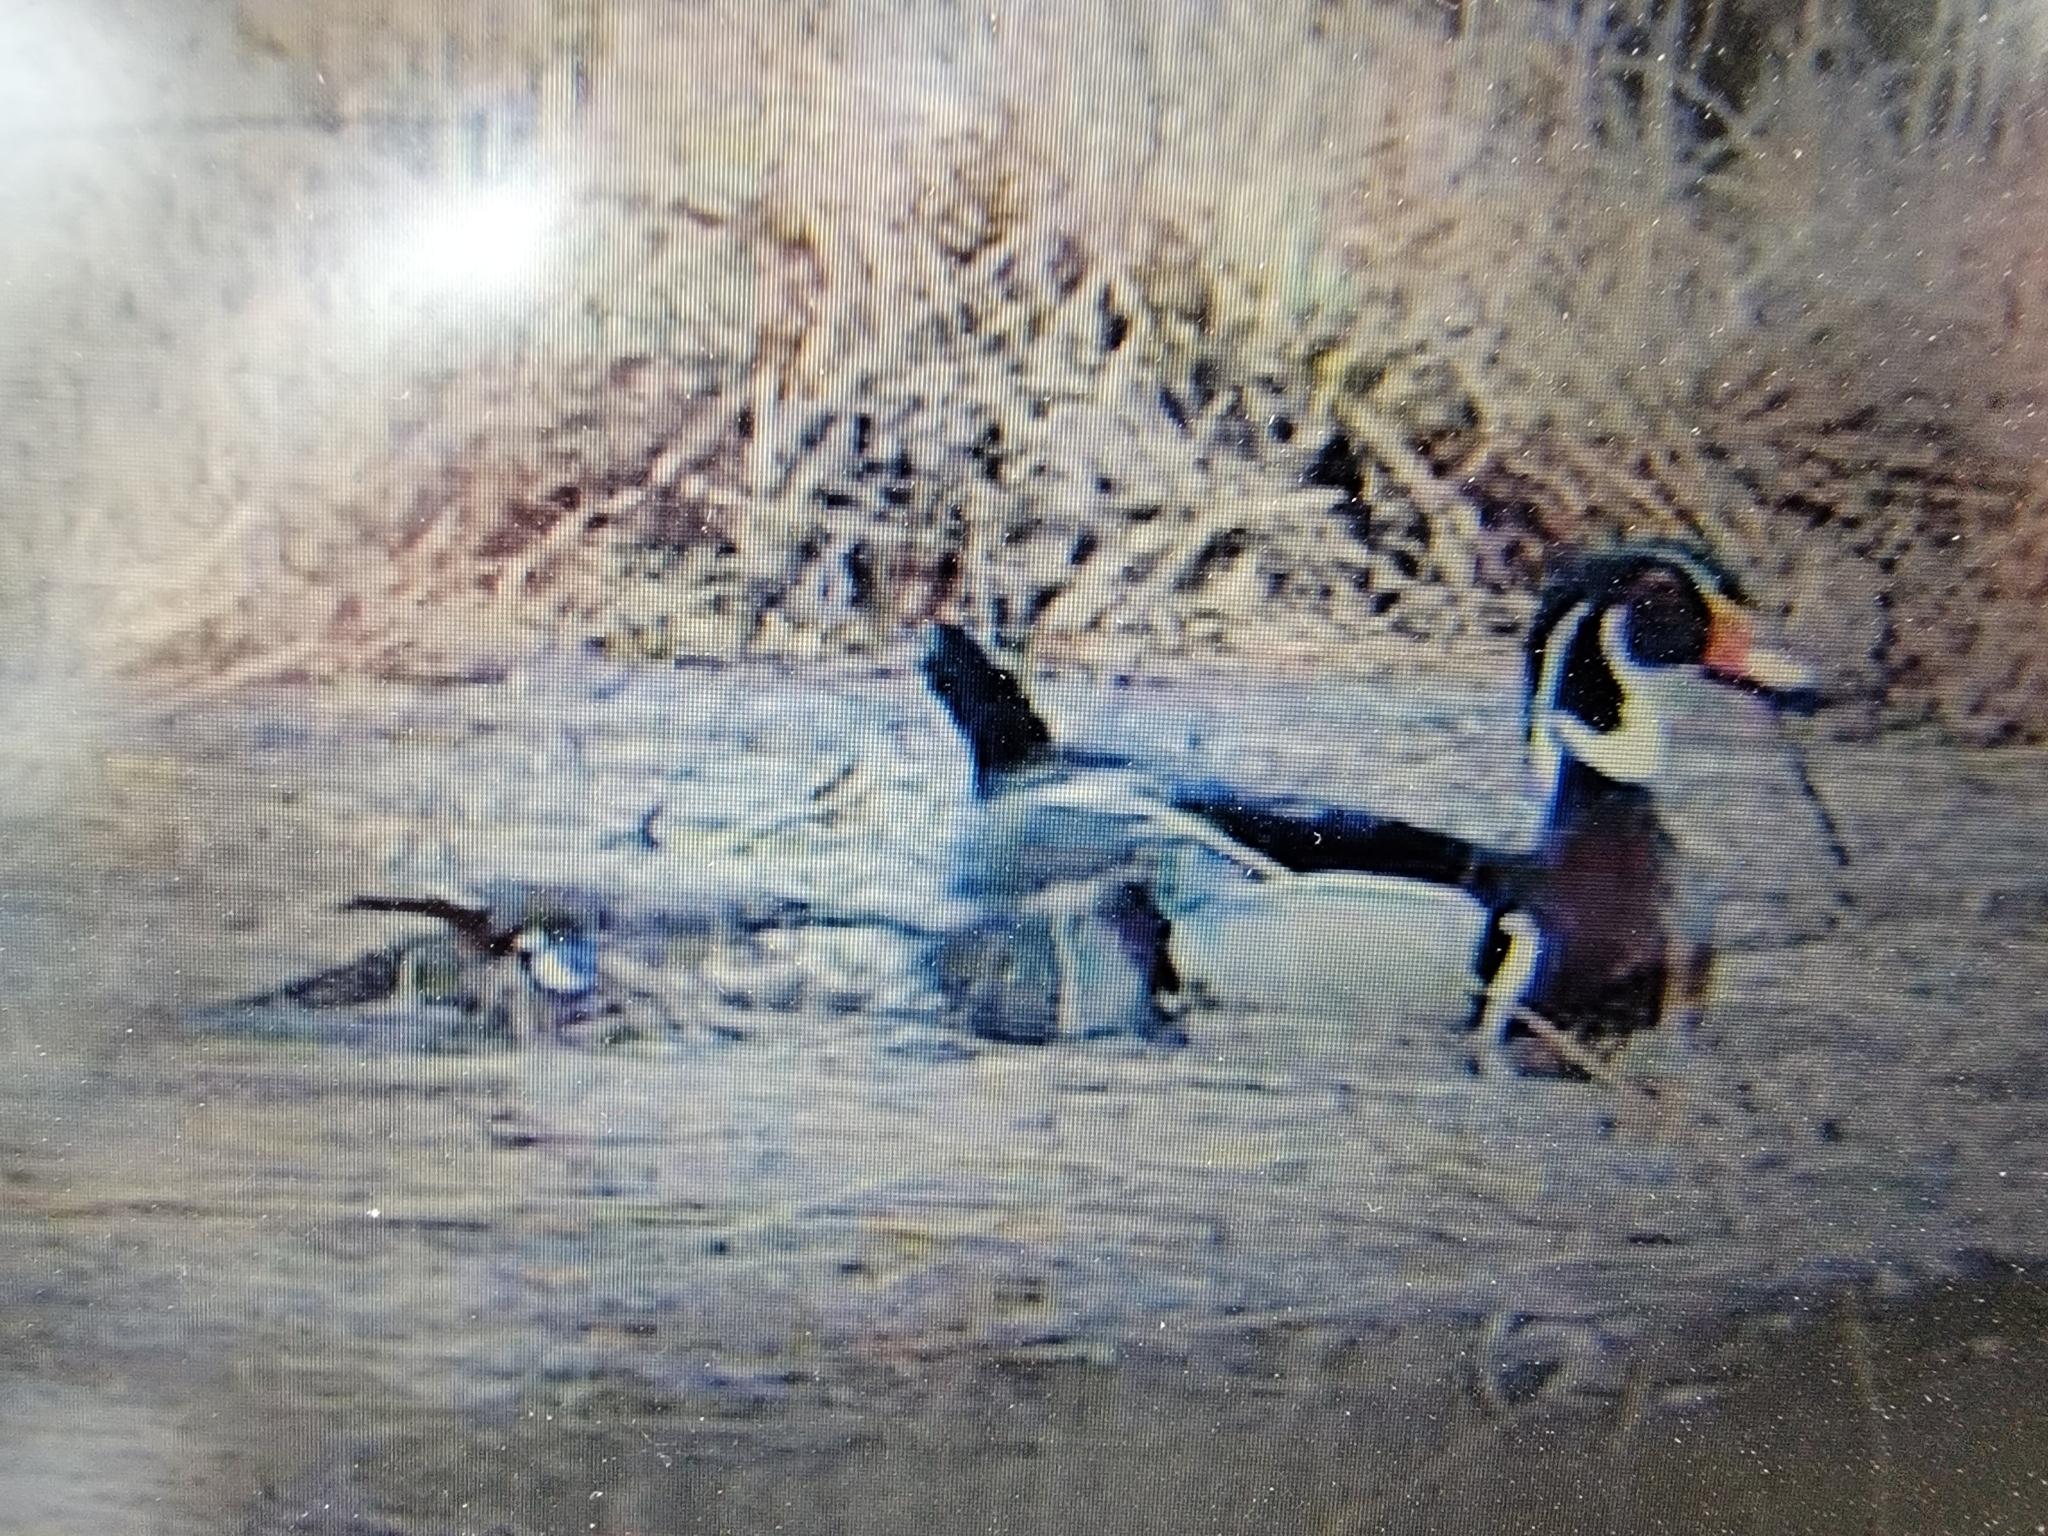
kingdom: Animalia
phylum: Chordata
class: Aves
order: Anseriformes
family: Anatidae
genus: Aix
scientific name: Aix sponsa
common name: Wood duck
